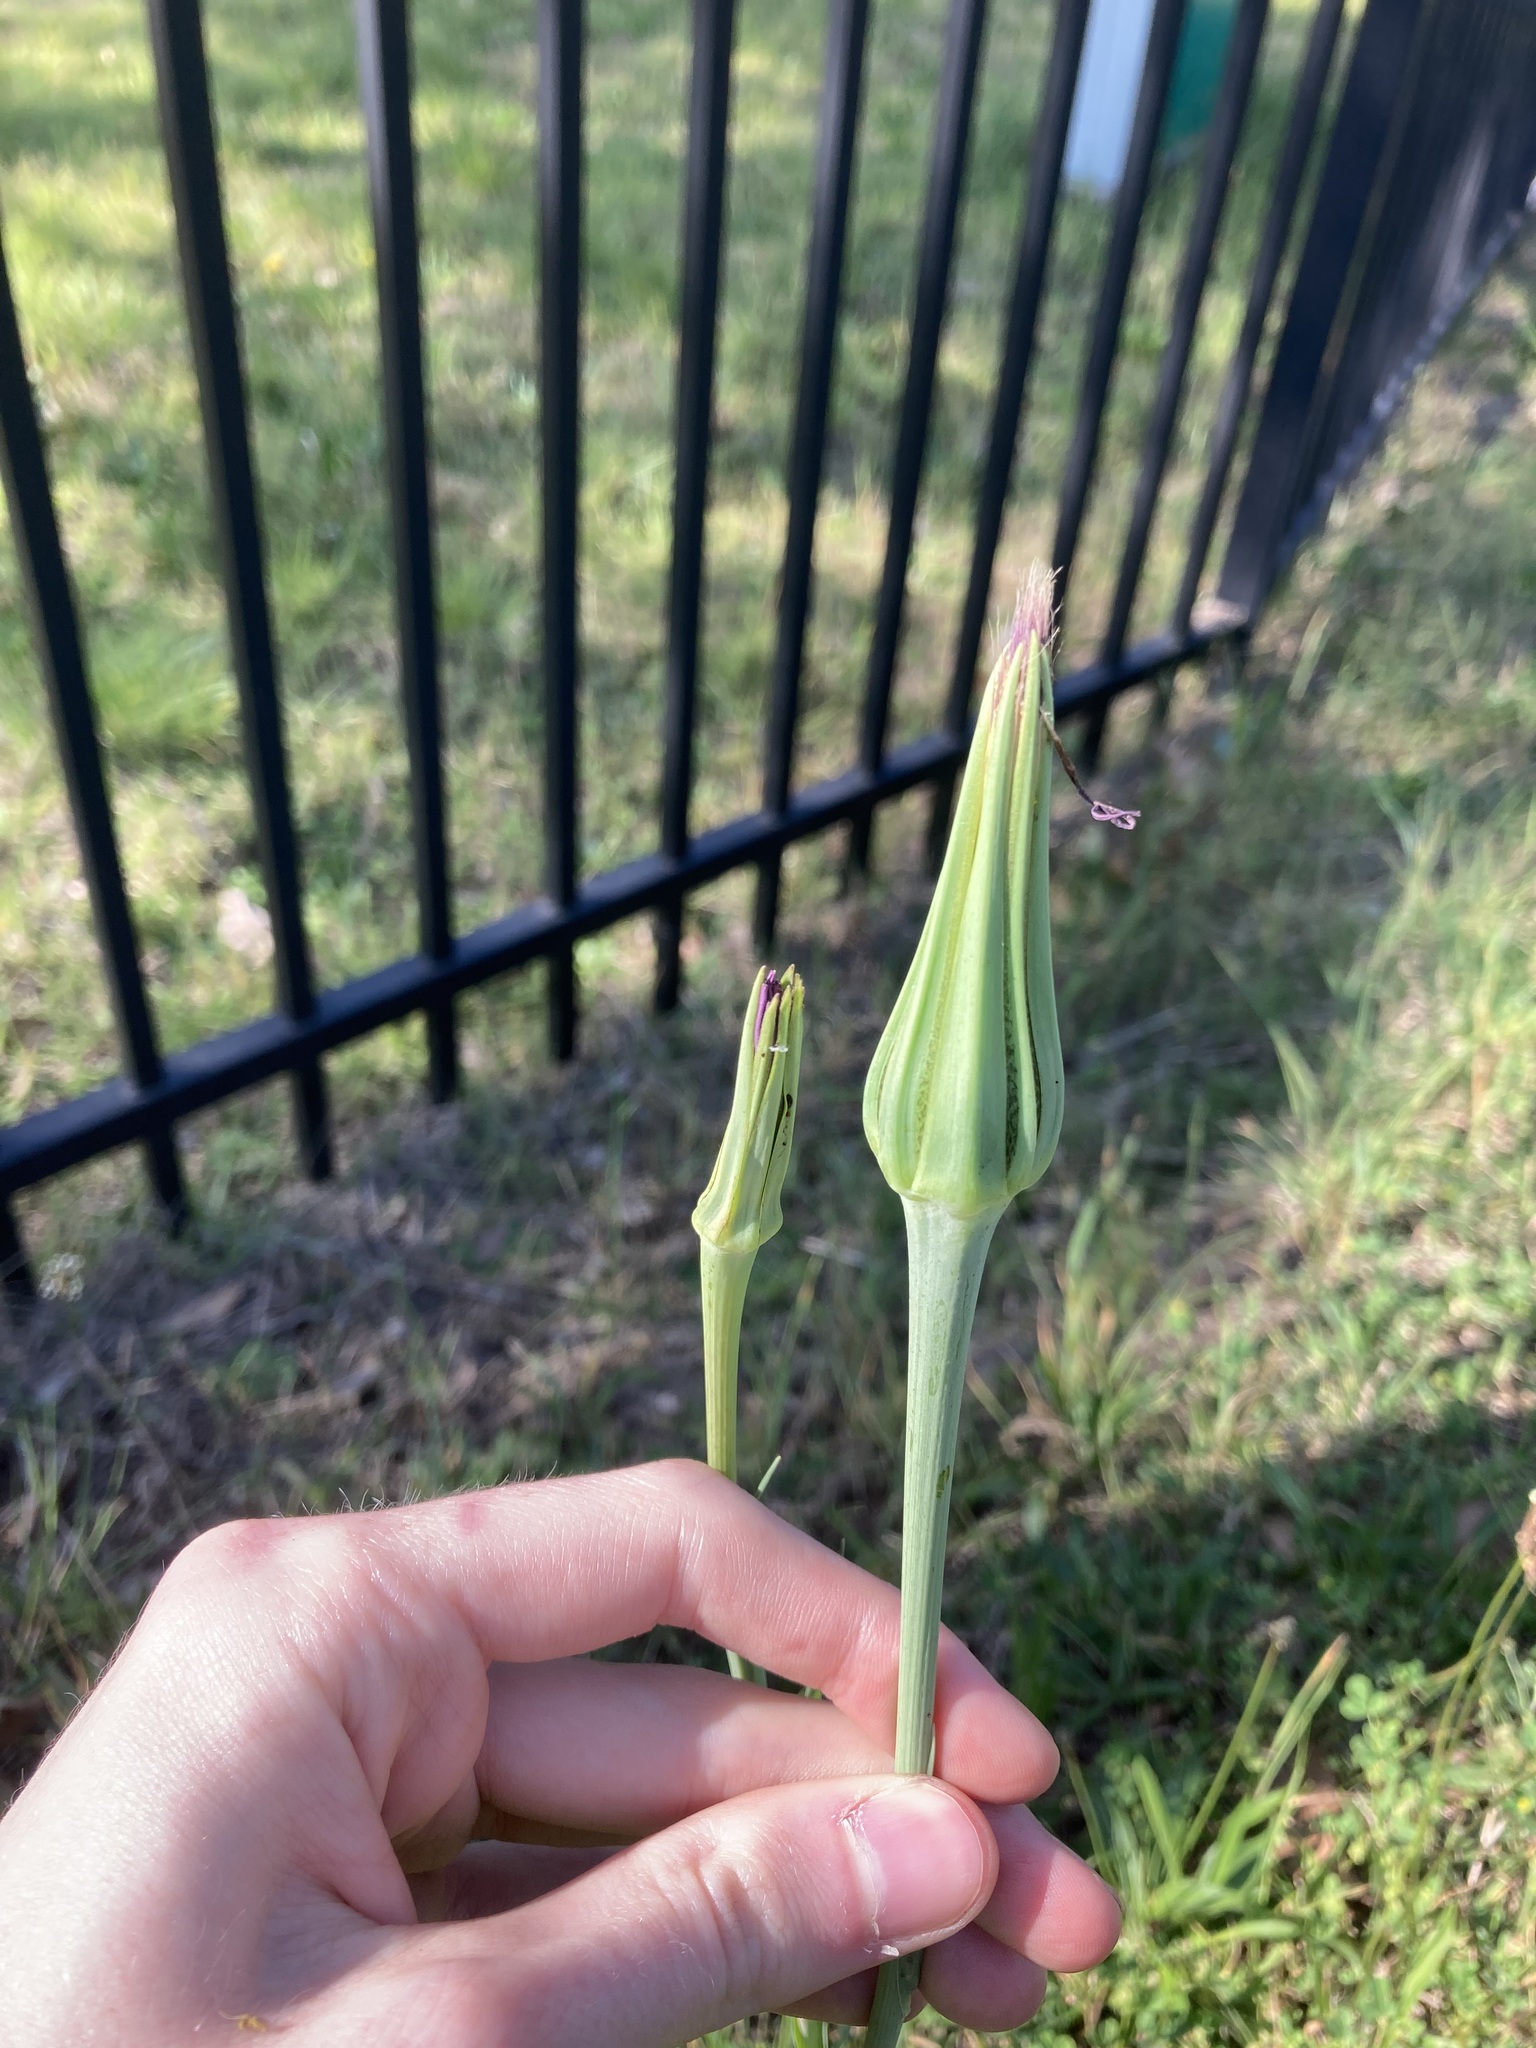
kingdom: Plantae
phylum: Tracheophyta
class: Magnoliopsida
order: Asterales
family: Asteraceae
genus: Tragopogon
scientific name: Tragopogon porrifolius
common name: Salsify
